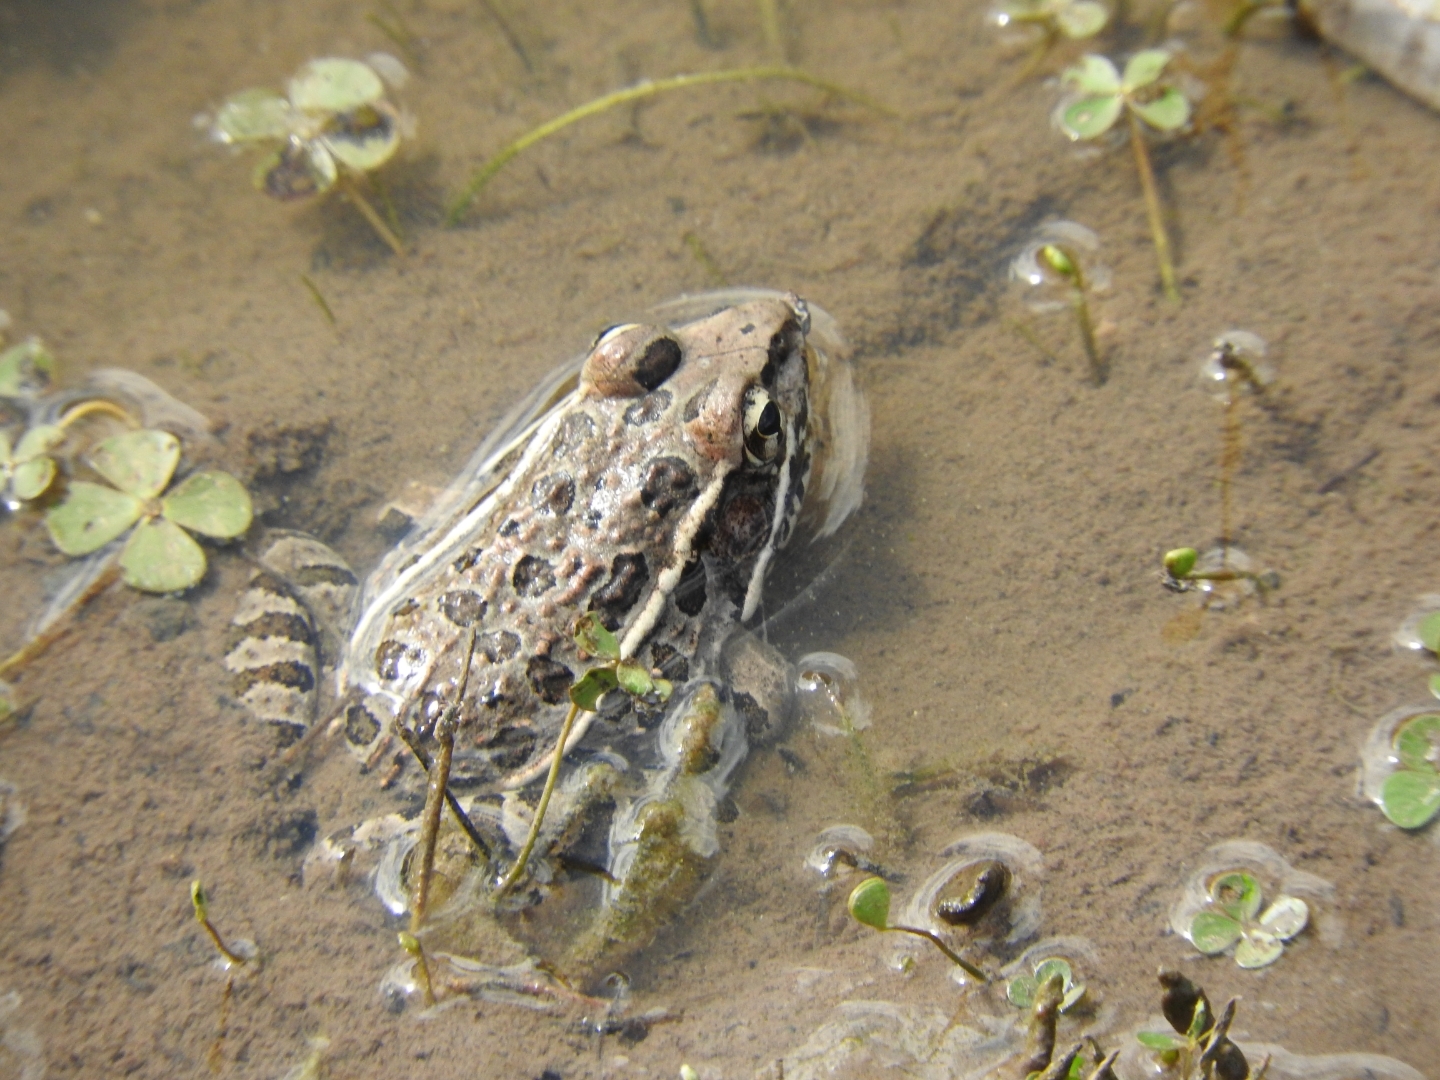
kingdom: Animalia
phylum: Chordata
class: Amphibia
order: Anura
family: Ranidae
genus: Lithobates
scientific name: Lithobates neovolcanicus
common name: Transverse volcanic leopard frog
